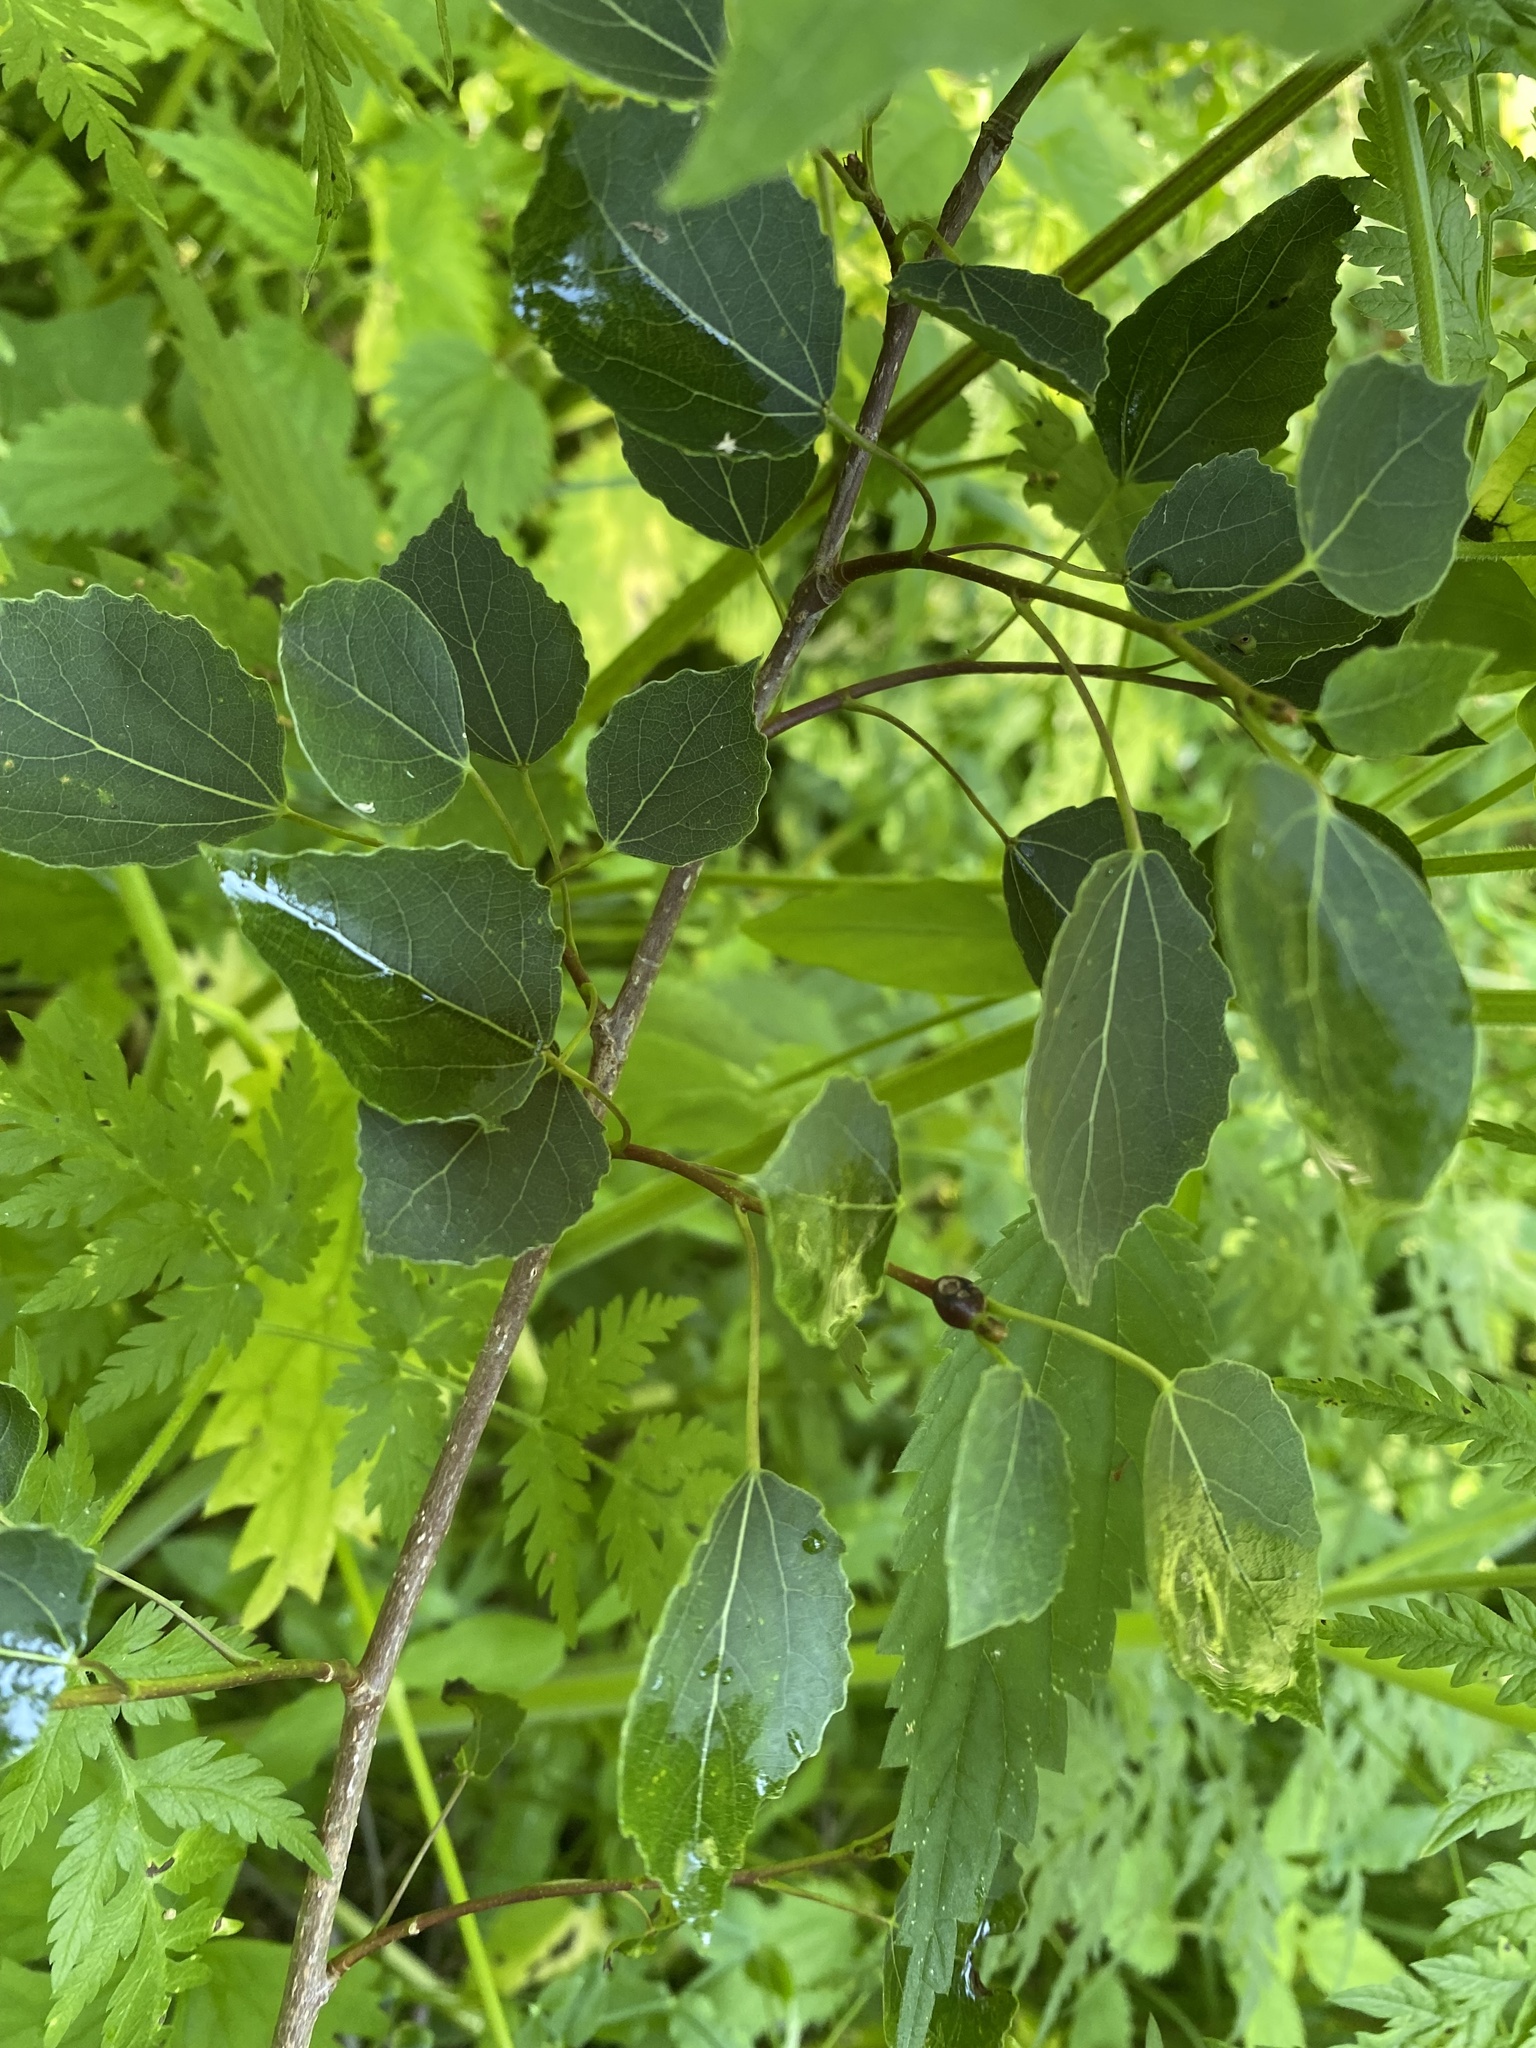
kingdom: Plantae
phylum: Tracheophyta
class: Magnoliopsida
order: Malpighiales
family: Salicaceae
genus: Populus
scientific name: Populus tremula
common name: European aspen
